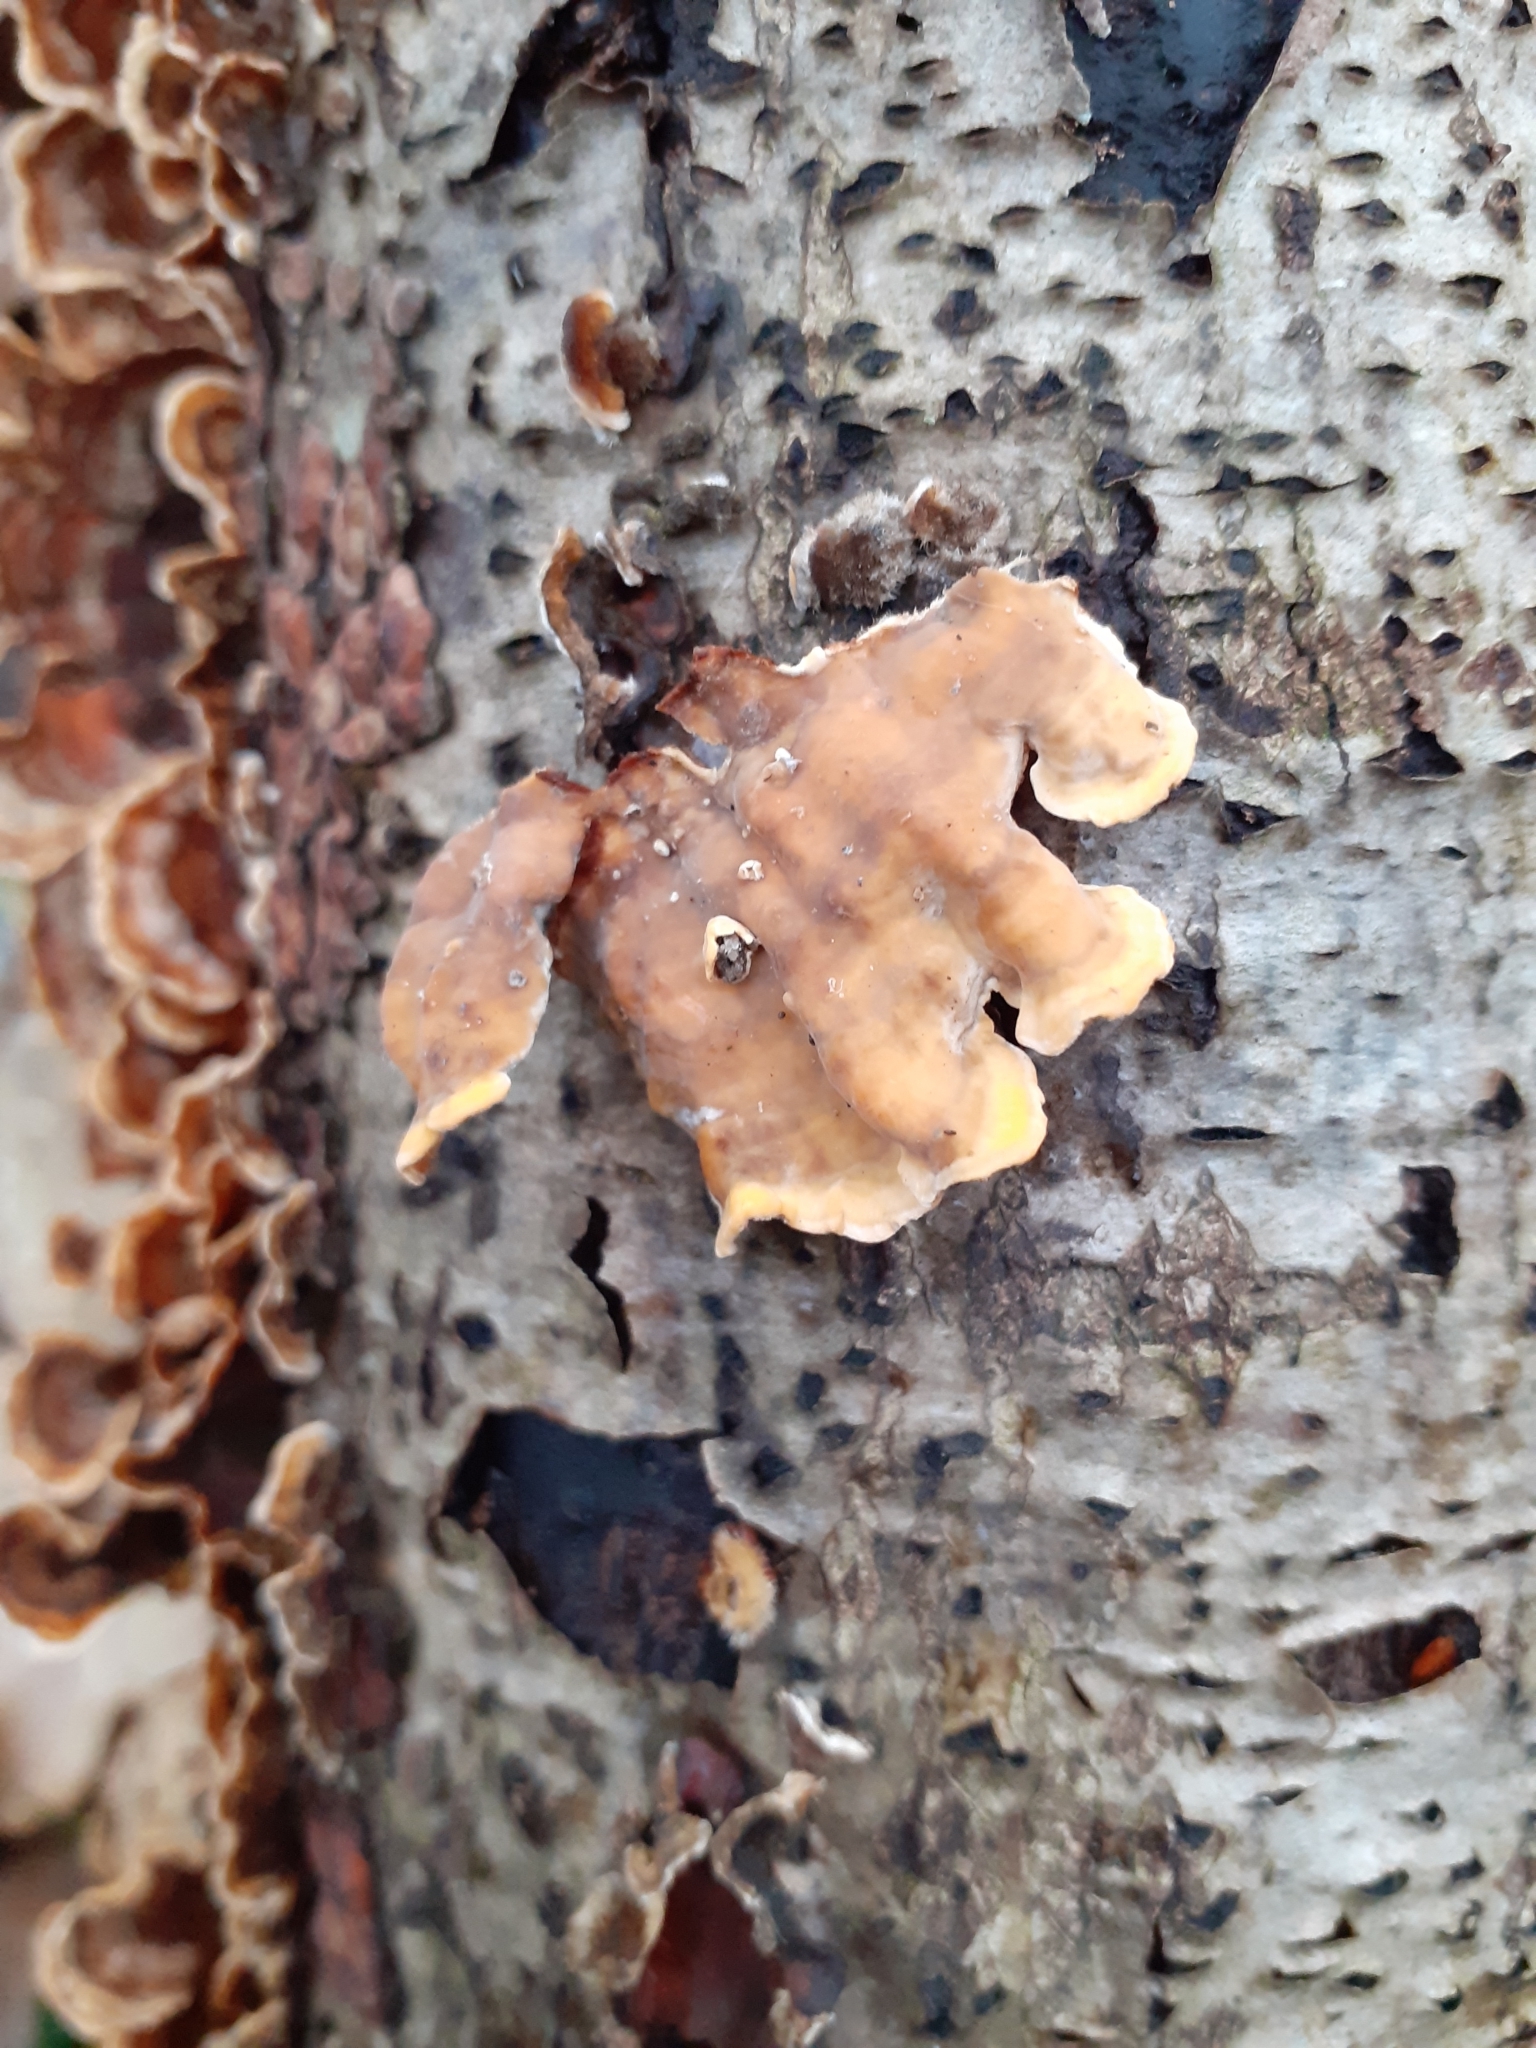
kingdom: Fungi
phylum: Basidiomycota
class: Agaricomycetes
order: Russulales
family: Stereaceae
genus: Stereum
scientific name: Stereum hirsutum
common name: Hairy curtain crust
